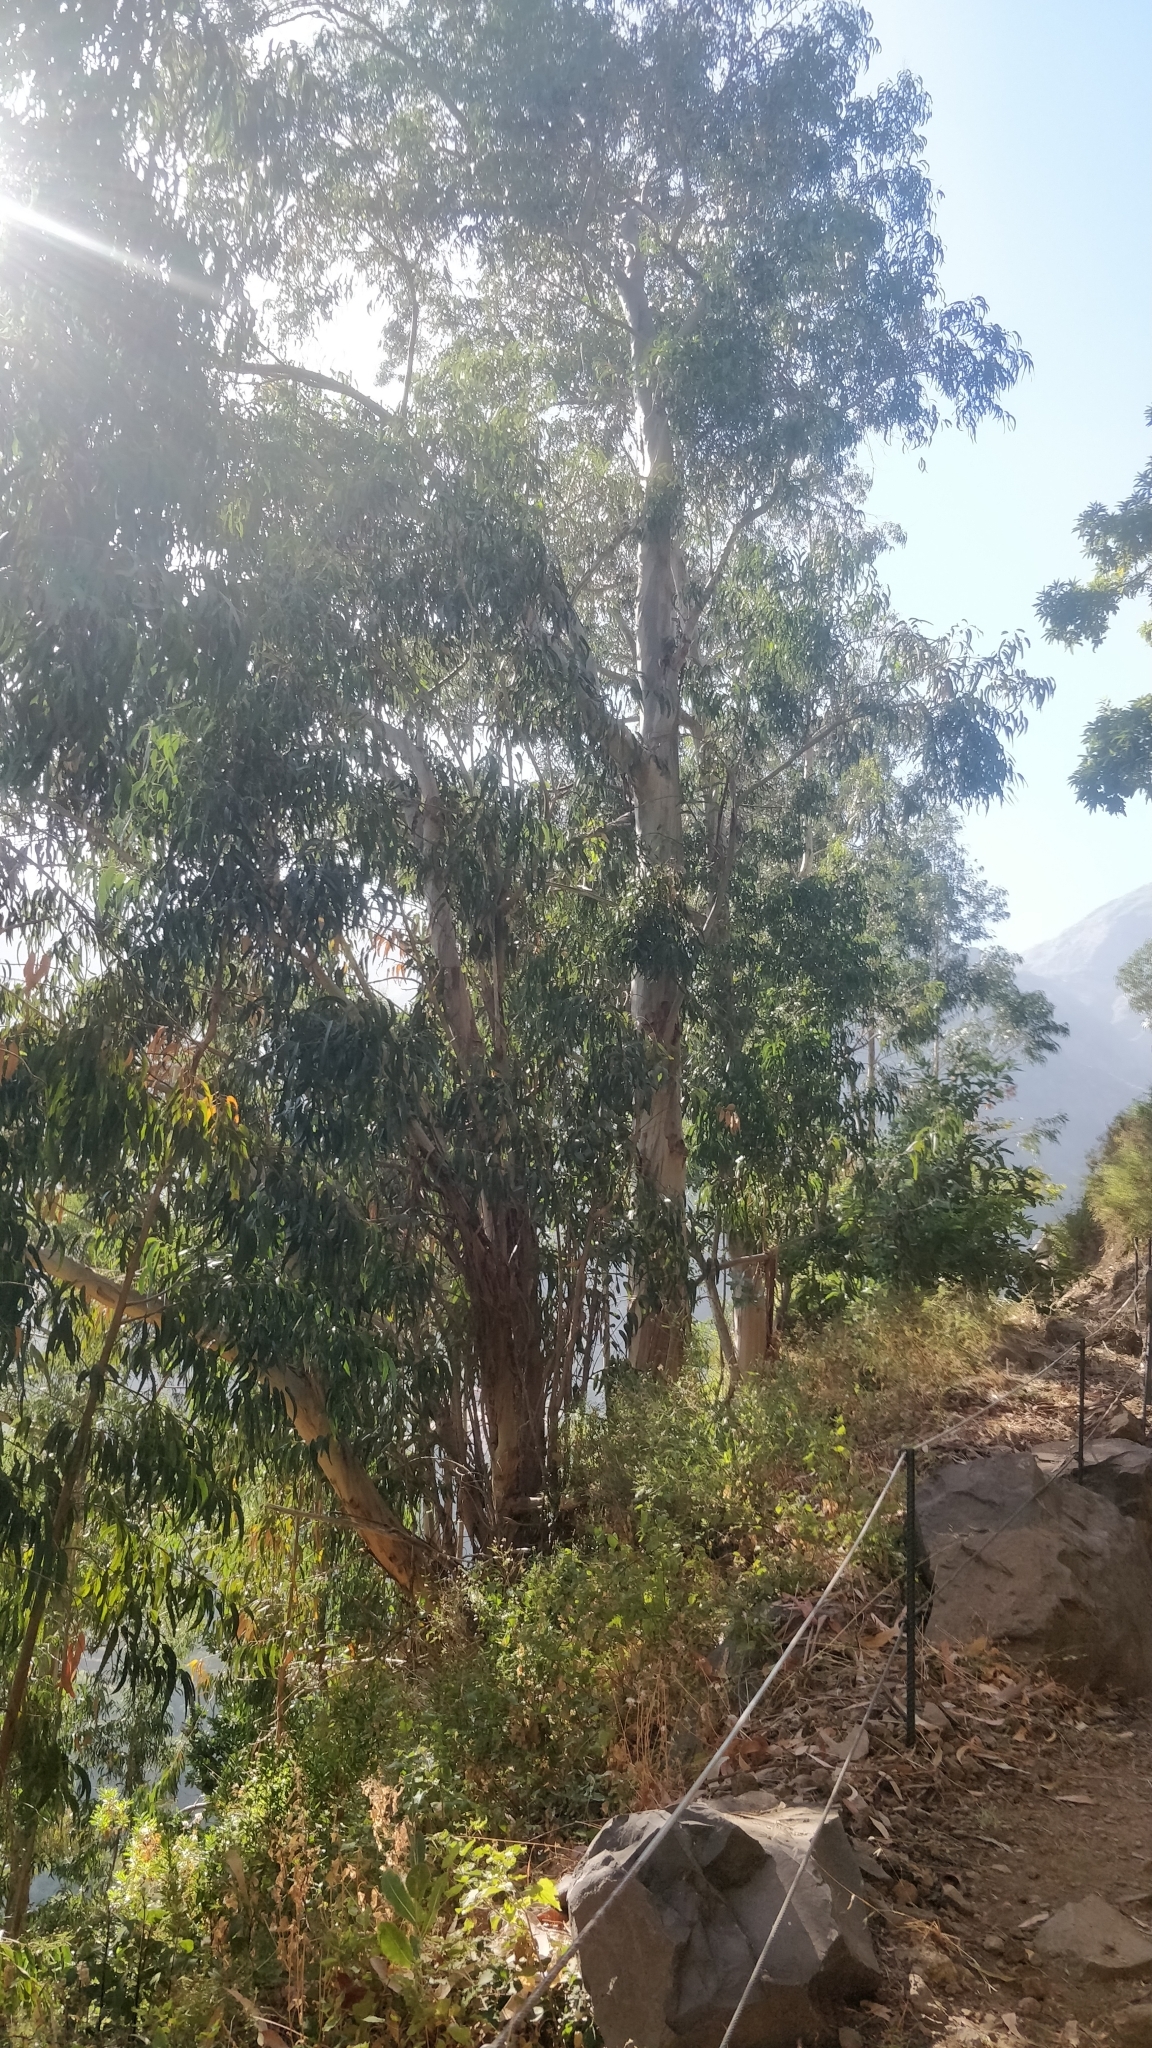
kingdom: Plantae
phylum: Tracheophyta
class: Magnoliopsida
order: Myrtales
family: Myrtaceae
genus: Eucalyptus
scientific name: Eucalyptus globulus
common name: Southern blue-gum
